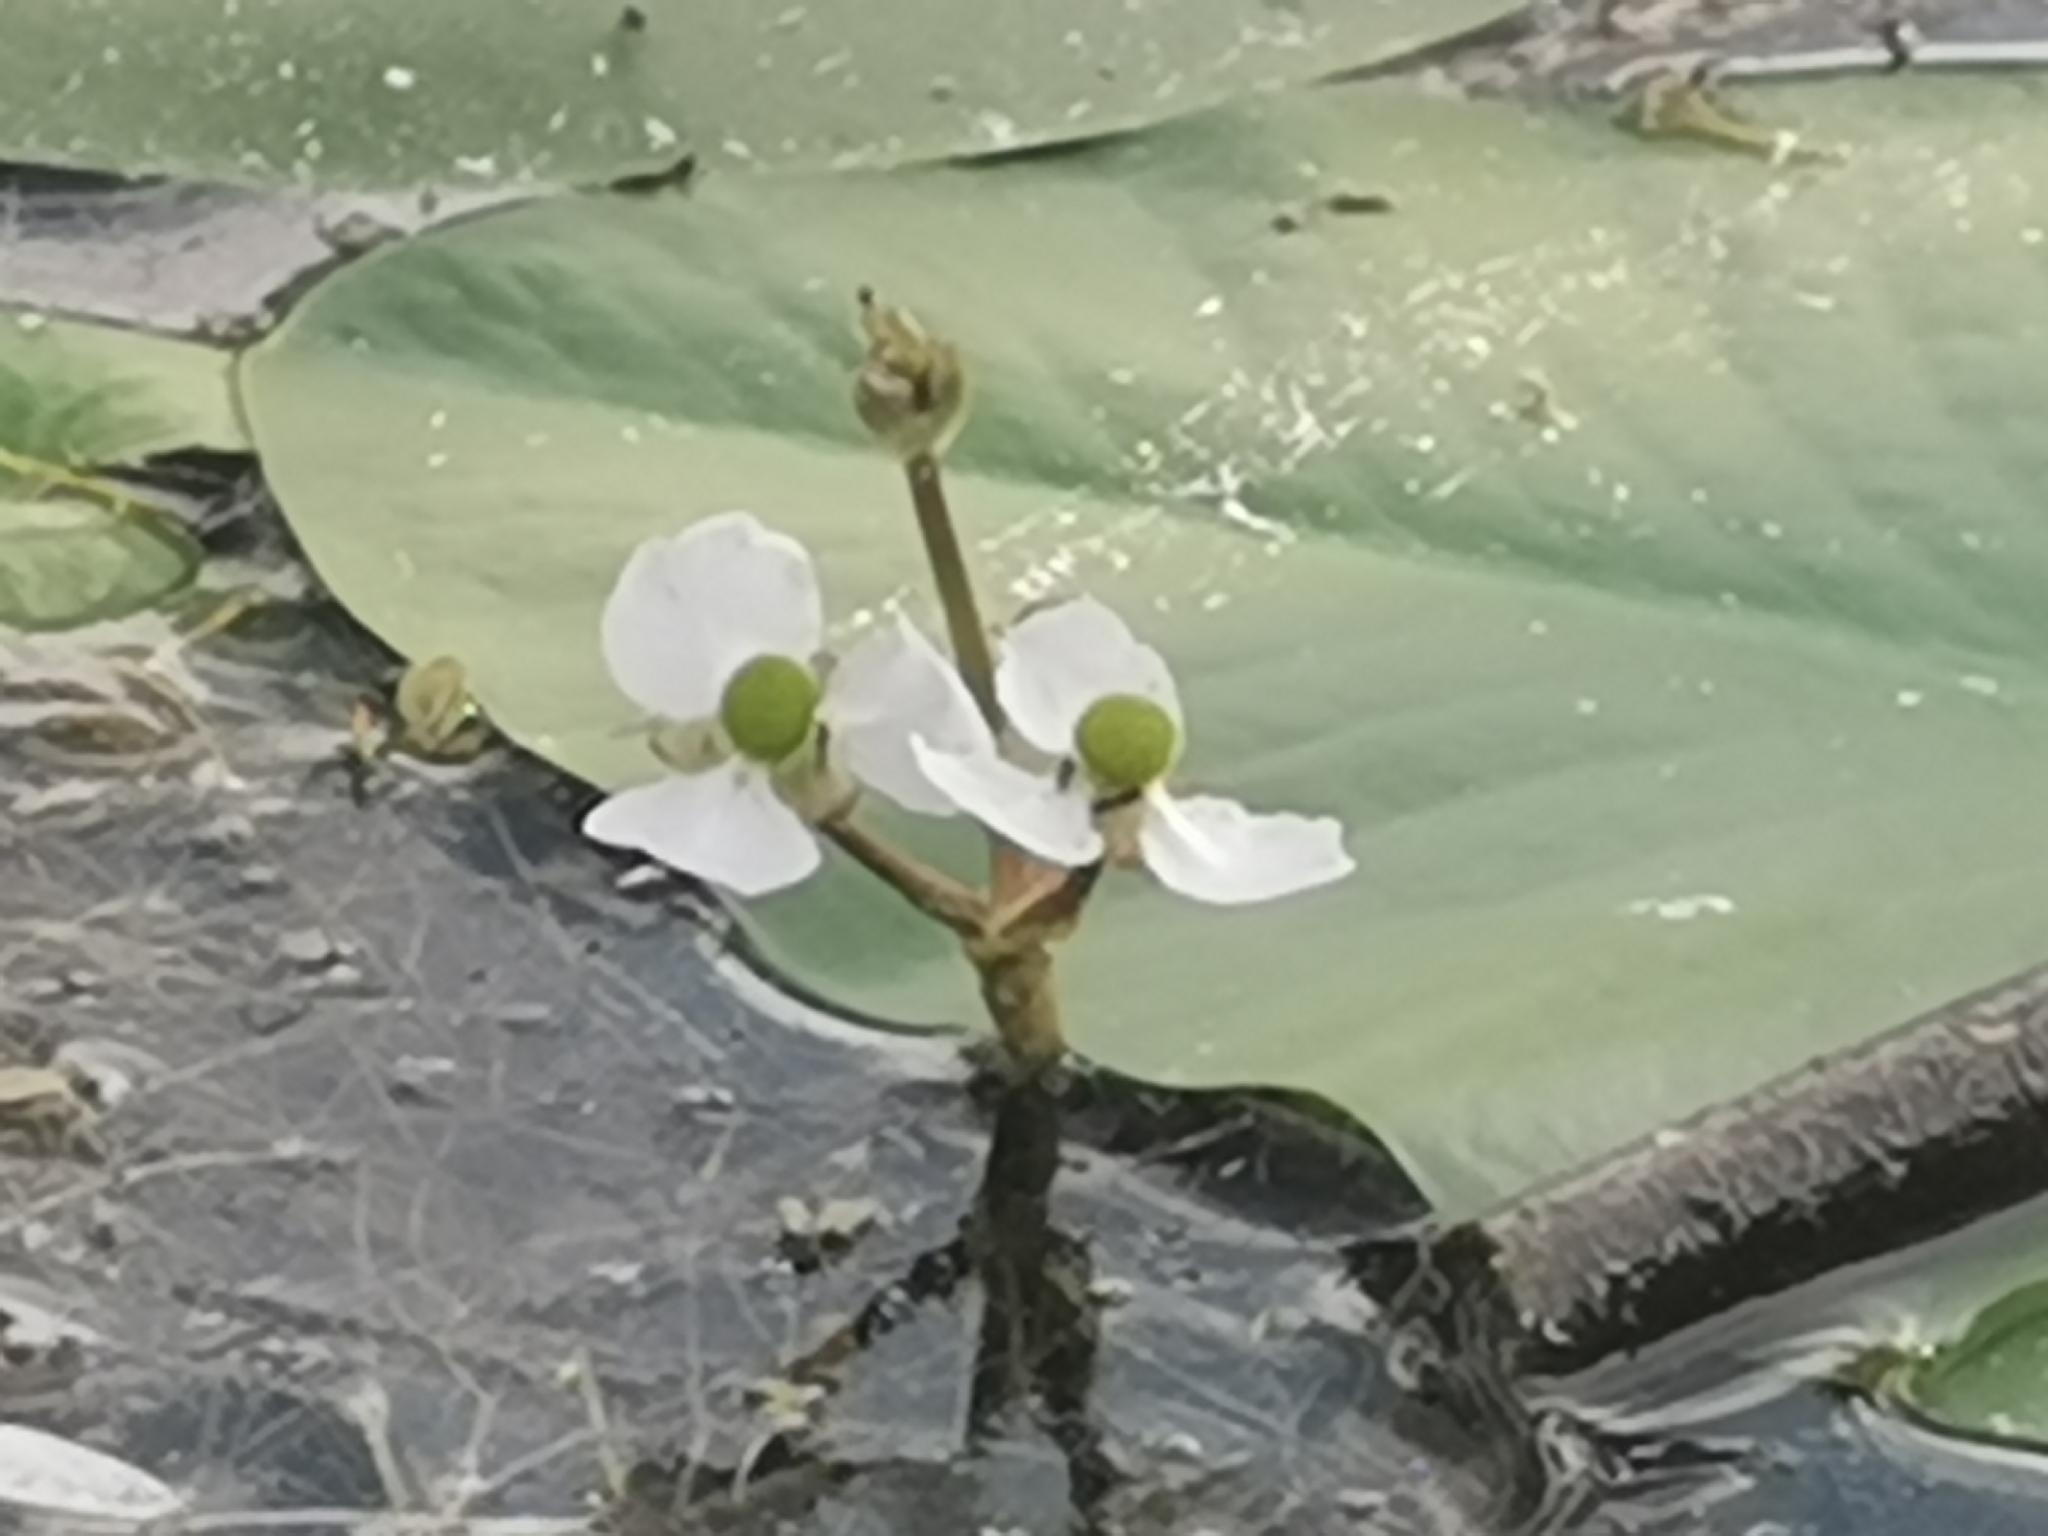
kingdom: Plantae
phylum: Tracheophyta
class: Liliopsida
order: Alismatales
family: Alismataceae
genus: Sagittaria
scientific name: Sagittaria cuneata
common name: Northern arrowhead
